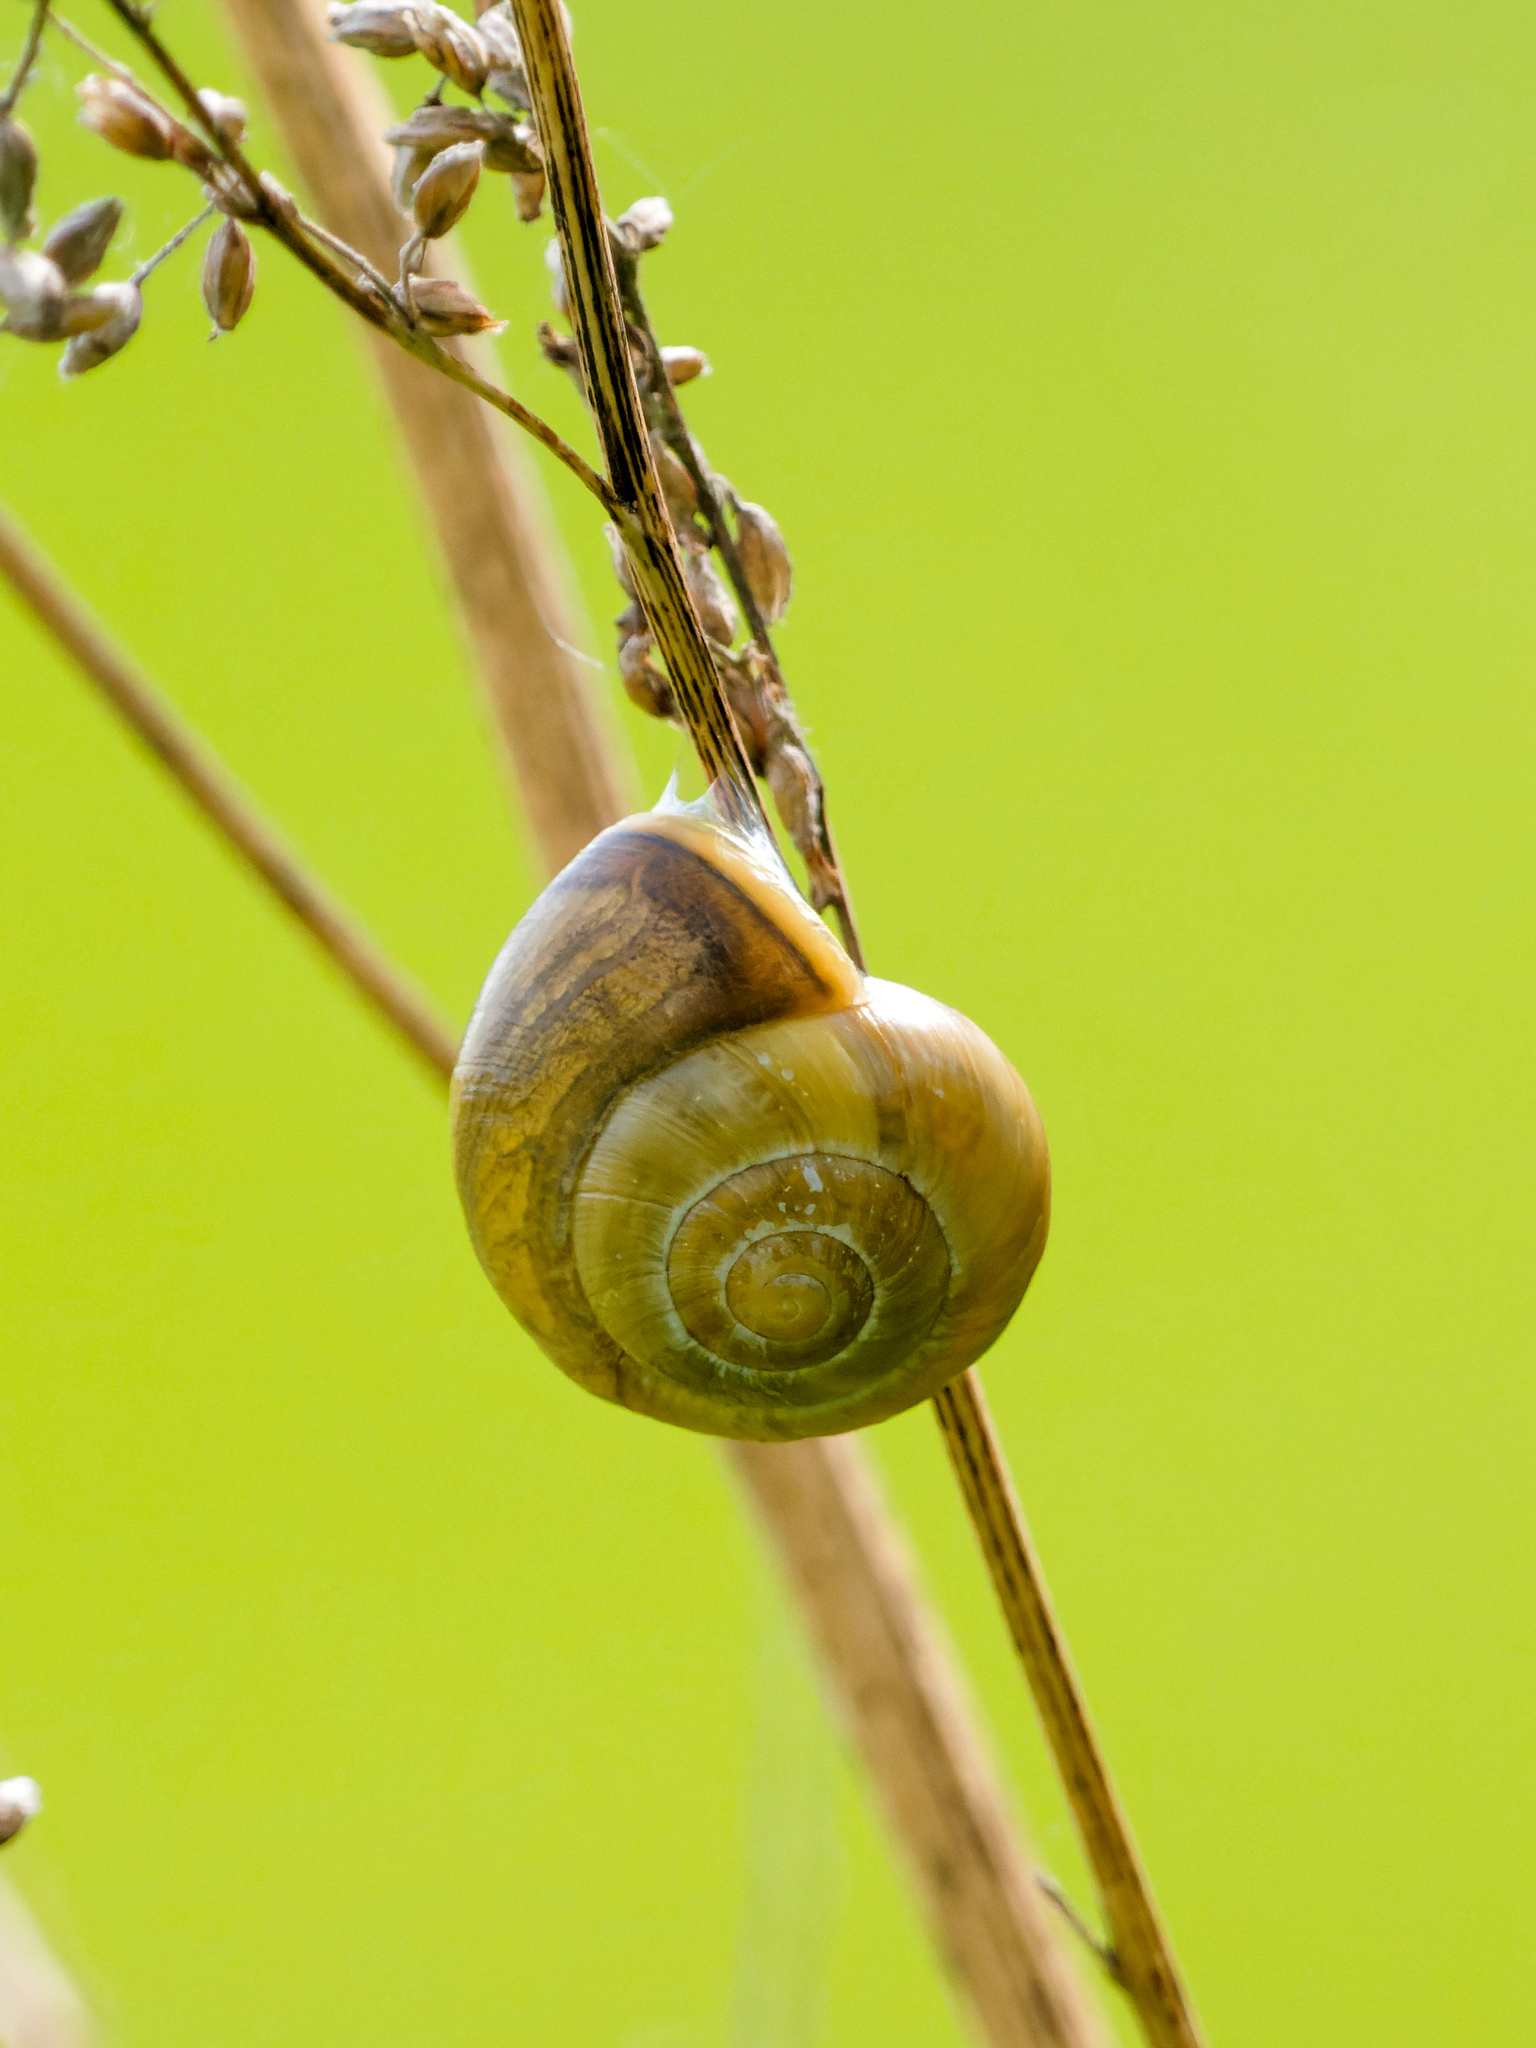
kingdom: Animalia
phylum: Mollusca
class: Gastropoda
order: Stylommatophora
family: Helicidae
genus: Cepaea
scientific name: Cepaea hortensis
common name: White-lip gardensnail
